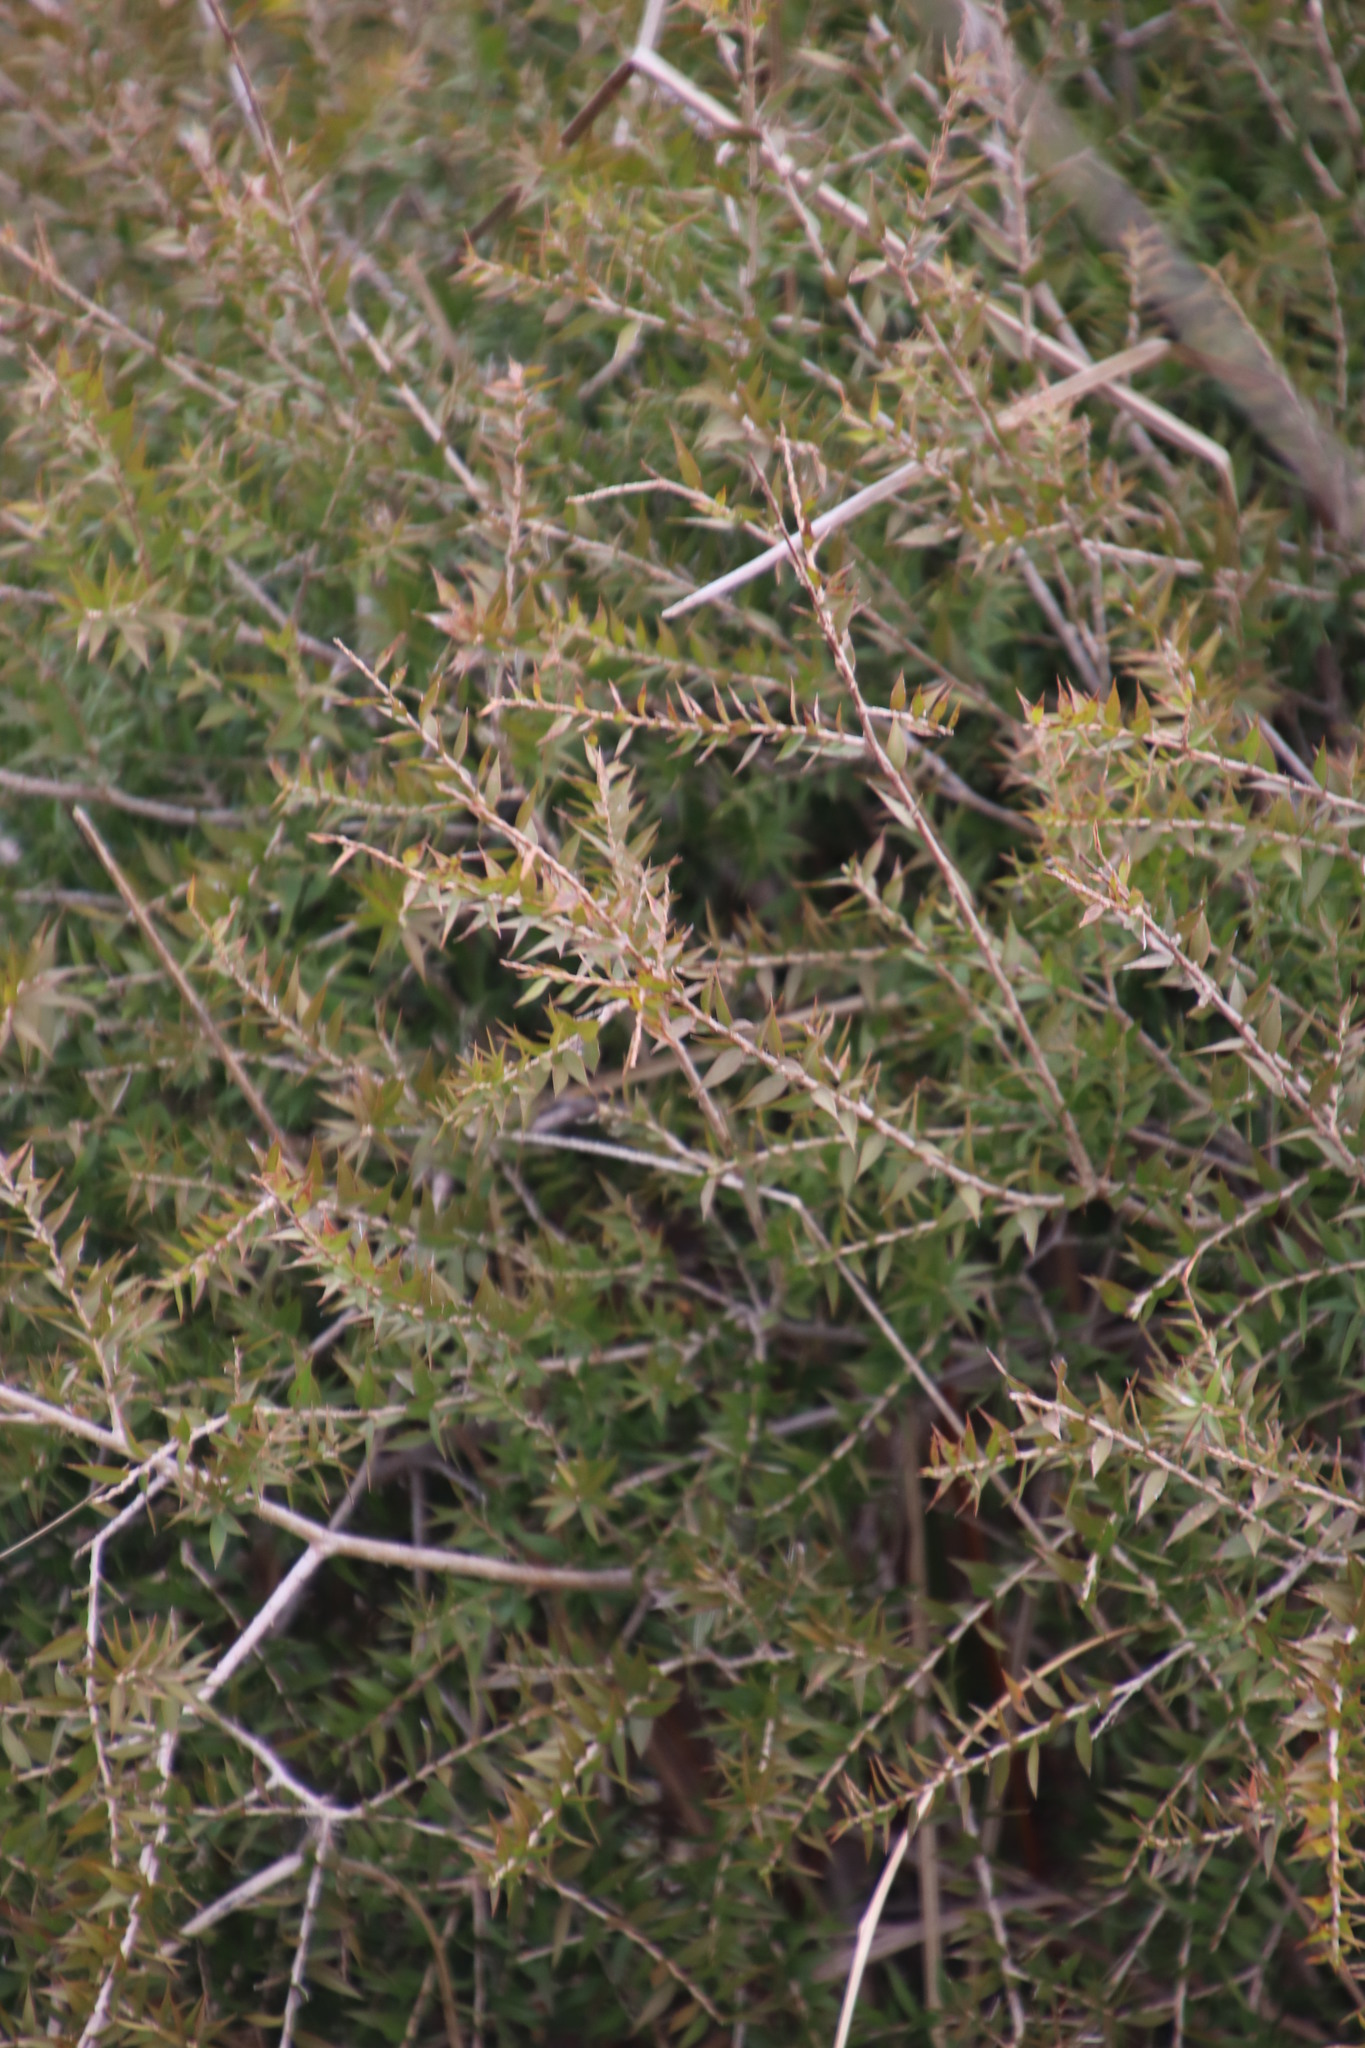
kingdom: Plantae
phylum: Tracheophyta
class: Magnoliopsida
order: Myrtales
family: Myrtaceae
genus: Melaleuca
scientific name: Melaleuca styphelioides
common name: Prickly paperbark
